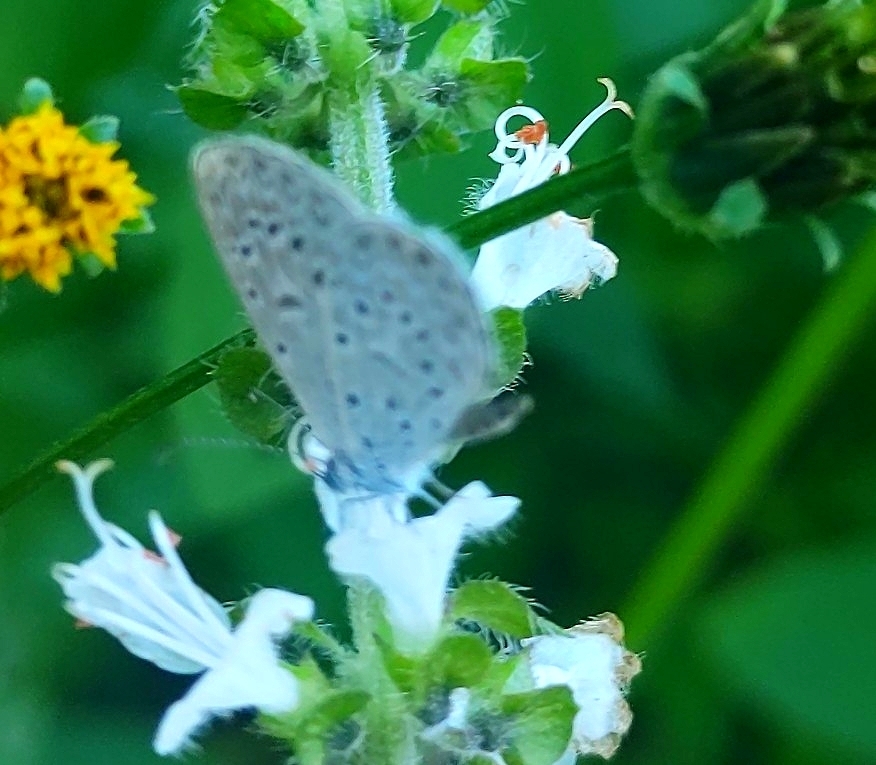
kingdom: Animalia
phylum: Arthropoda
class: Insecta
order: Lepidoptera
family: Lycaenidae
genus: Lycaena
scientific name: Lycaena cyna
